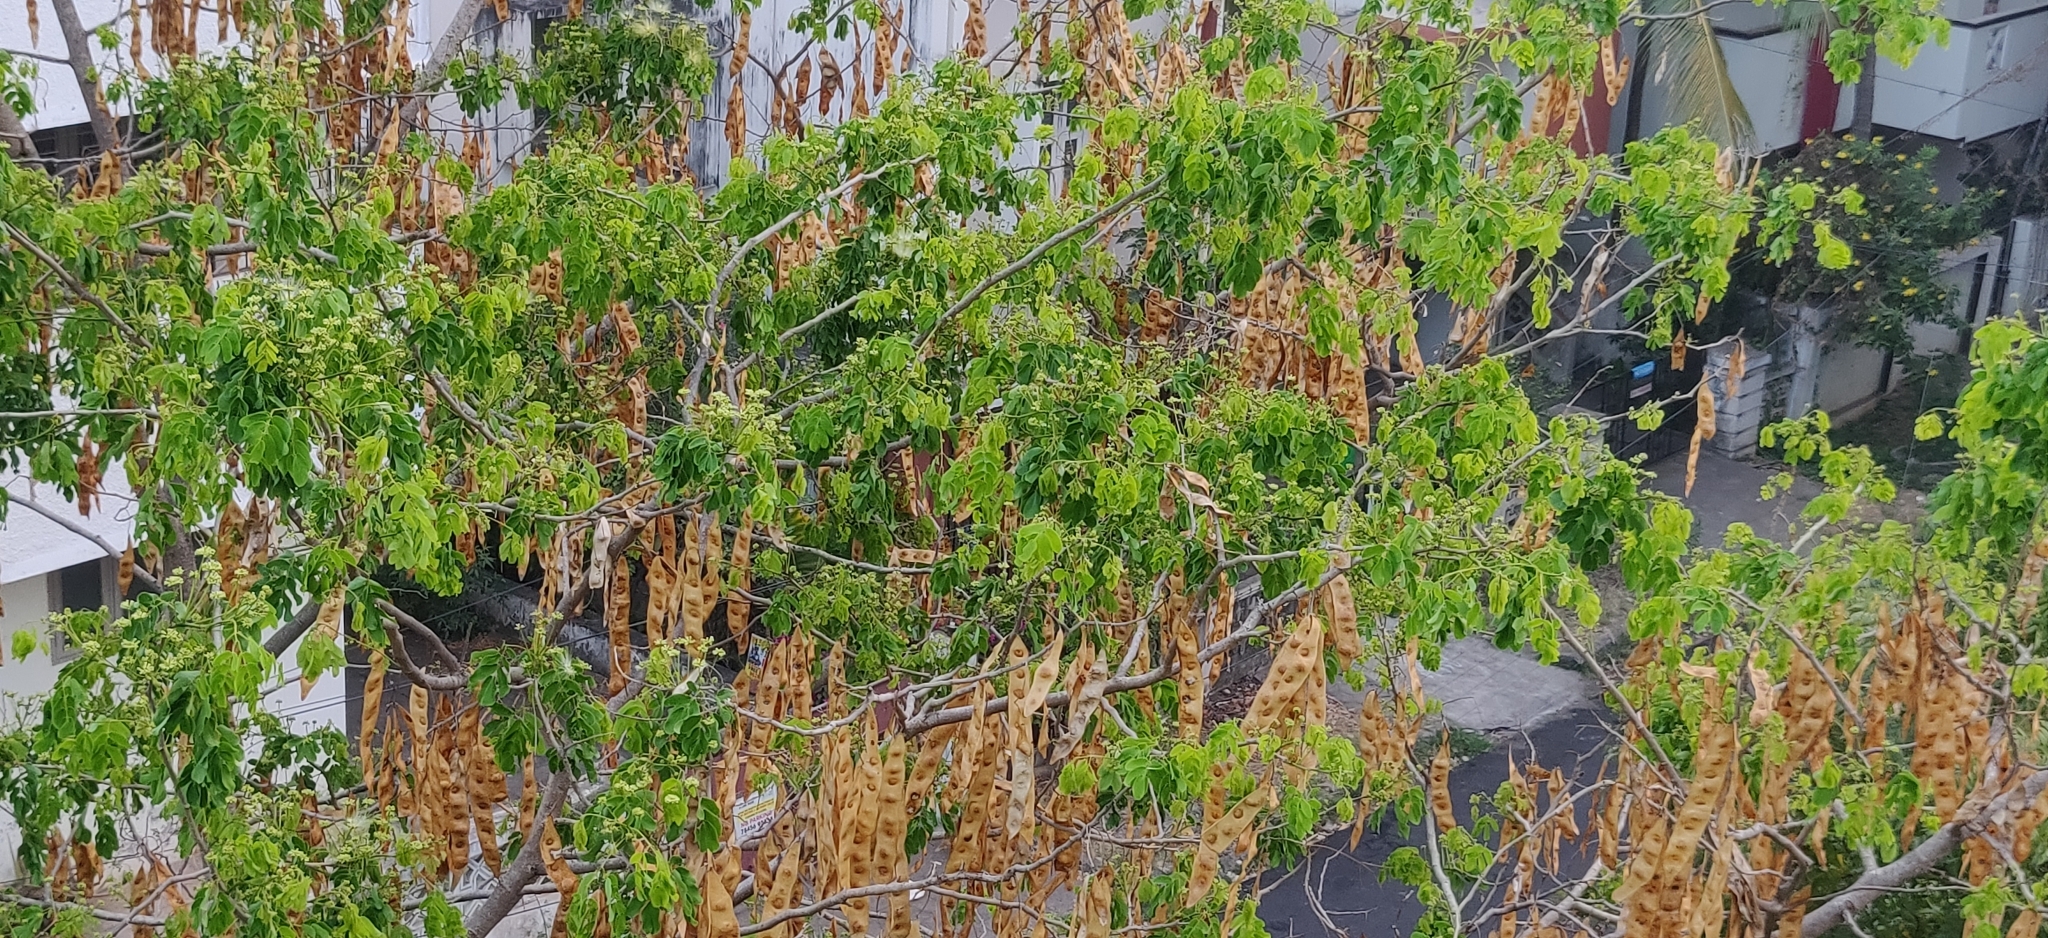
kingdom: Plantae
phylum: Tracheophyta
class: Magnoliopsida
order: Fabales
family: Fabaceae
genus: Albizia
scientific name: Albizia lebbeck
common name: Woman's tongue
